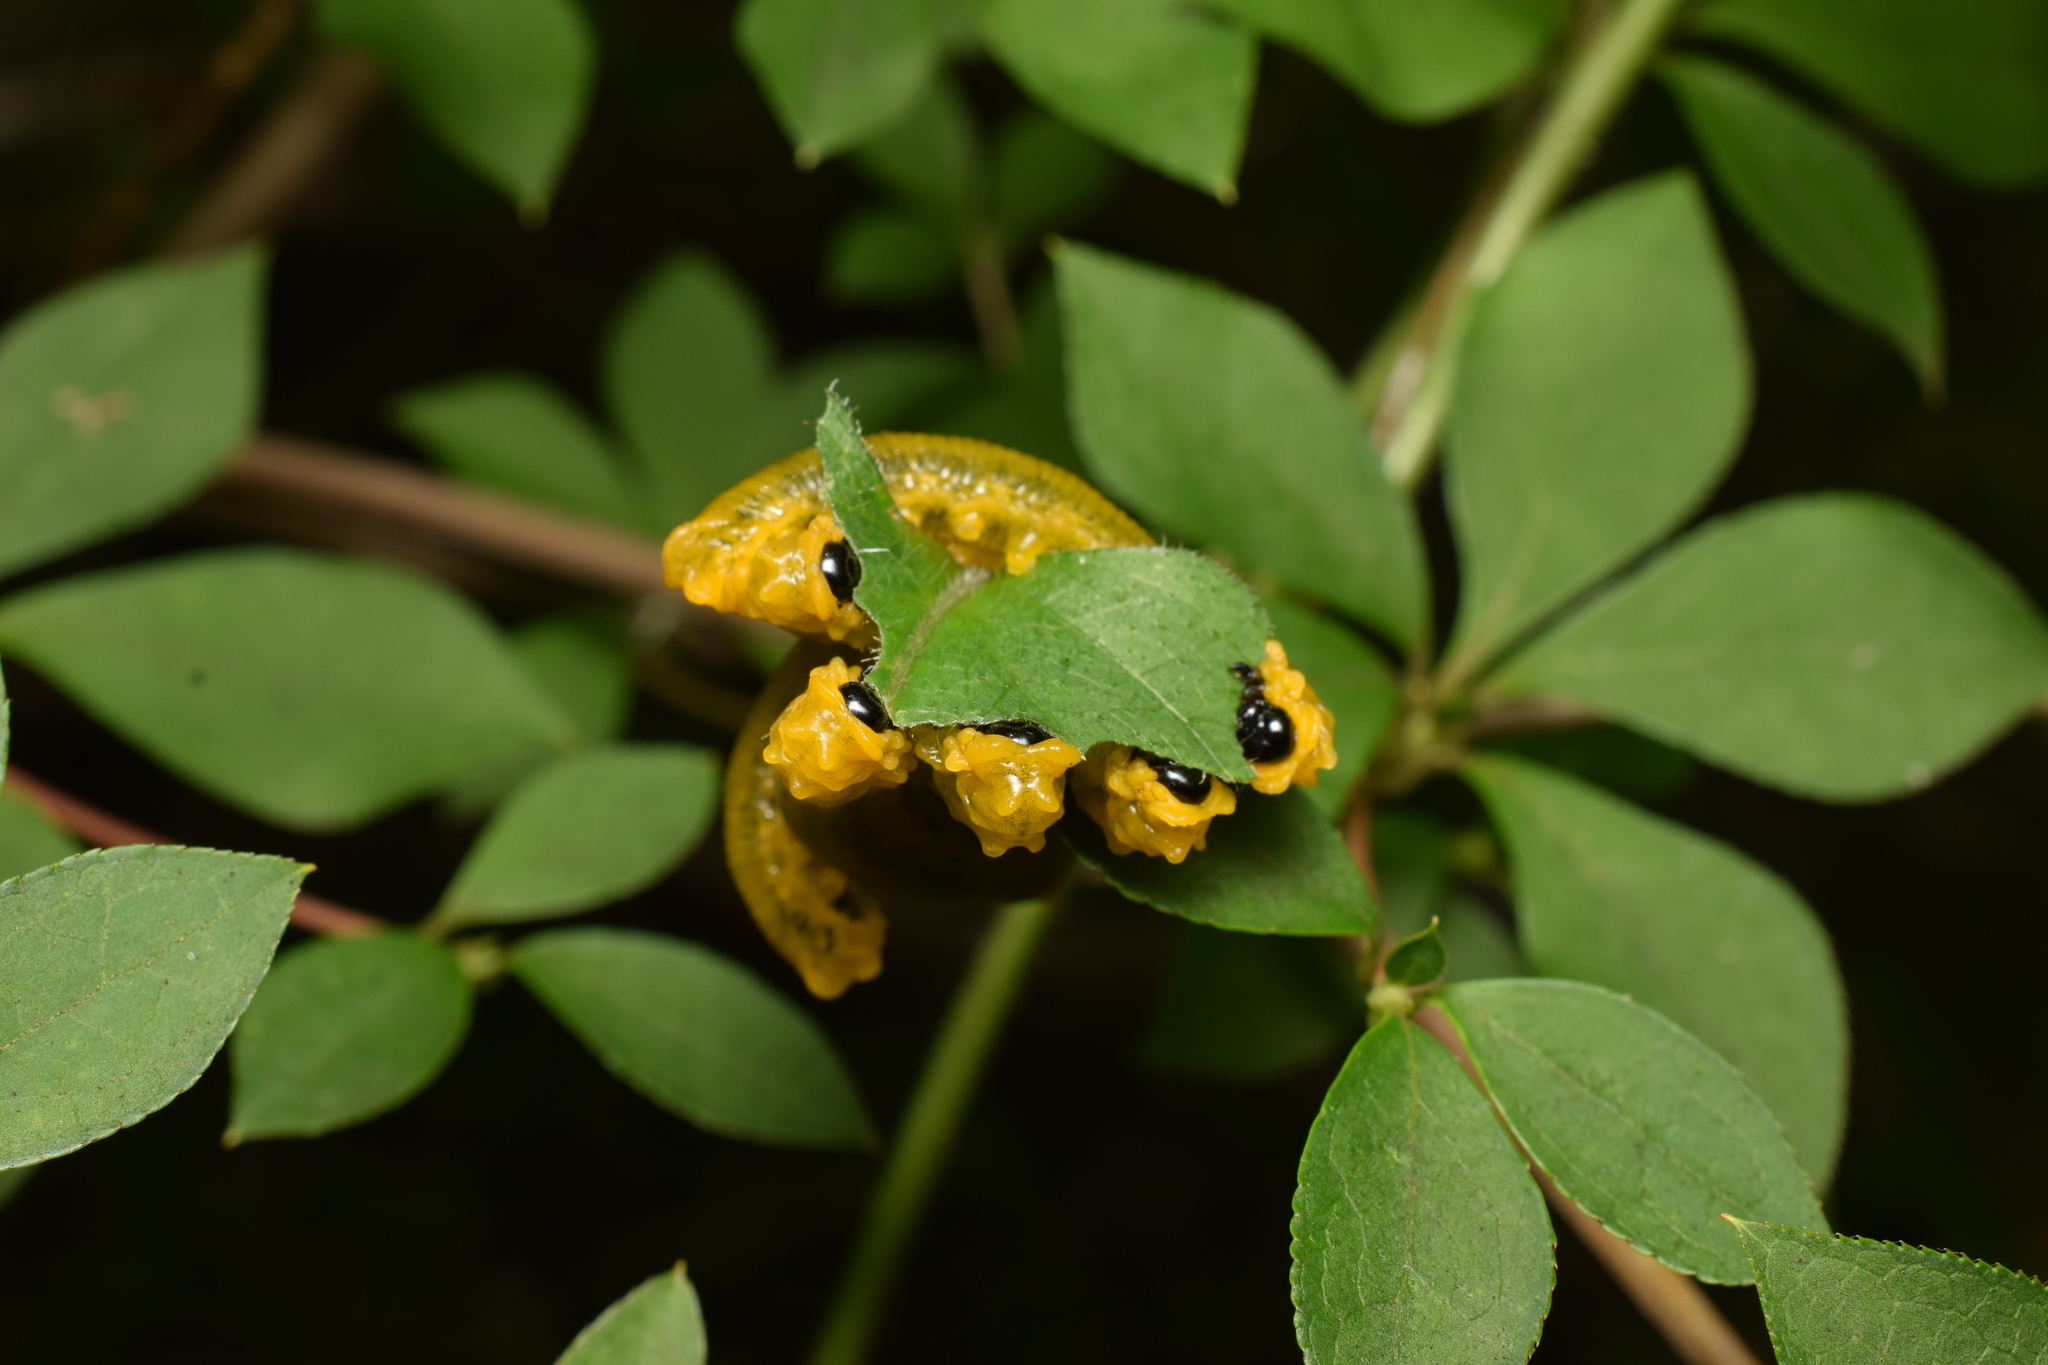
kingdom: Animalia
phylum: Arthropoda
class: Insecta
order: Hymenoptera
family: Tenthredinidae
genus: Nesotaxonus
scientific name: Nesotaxonus fulvus
